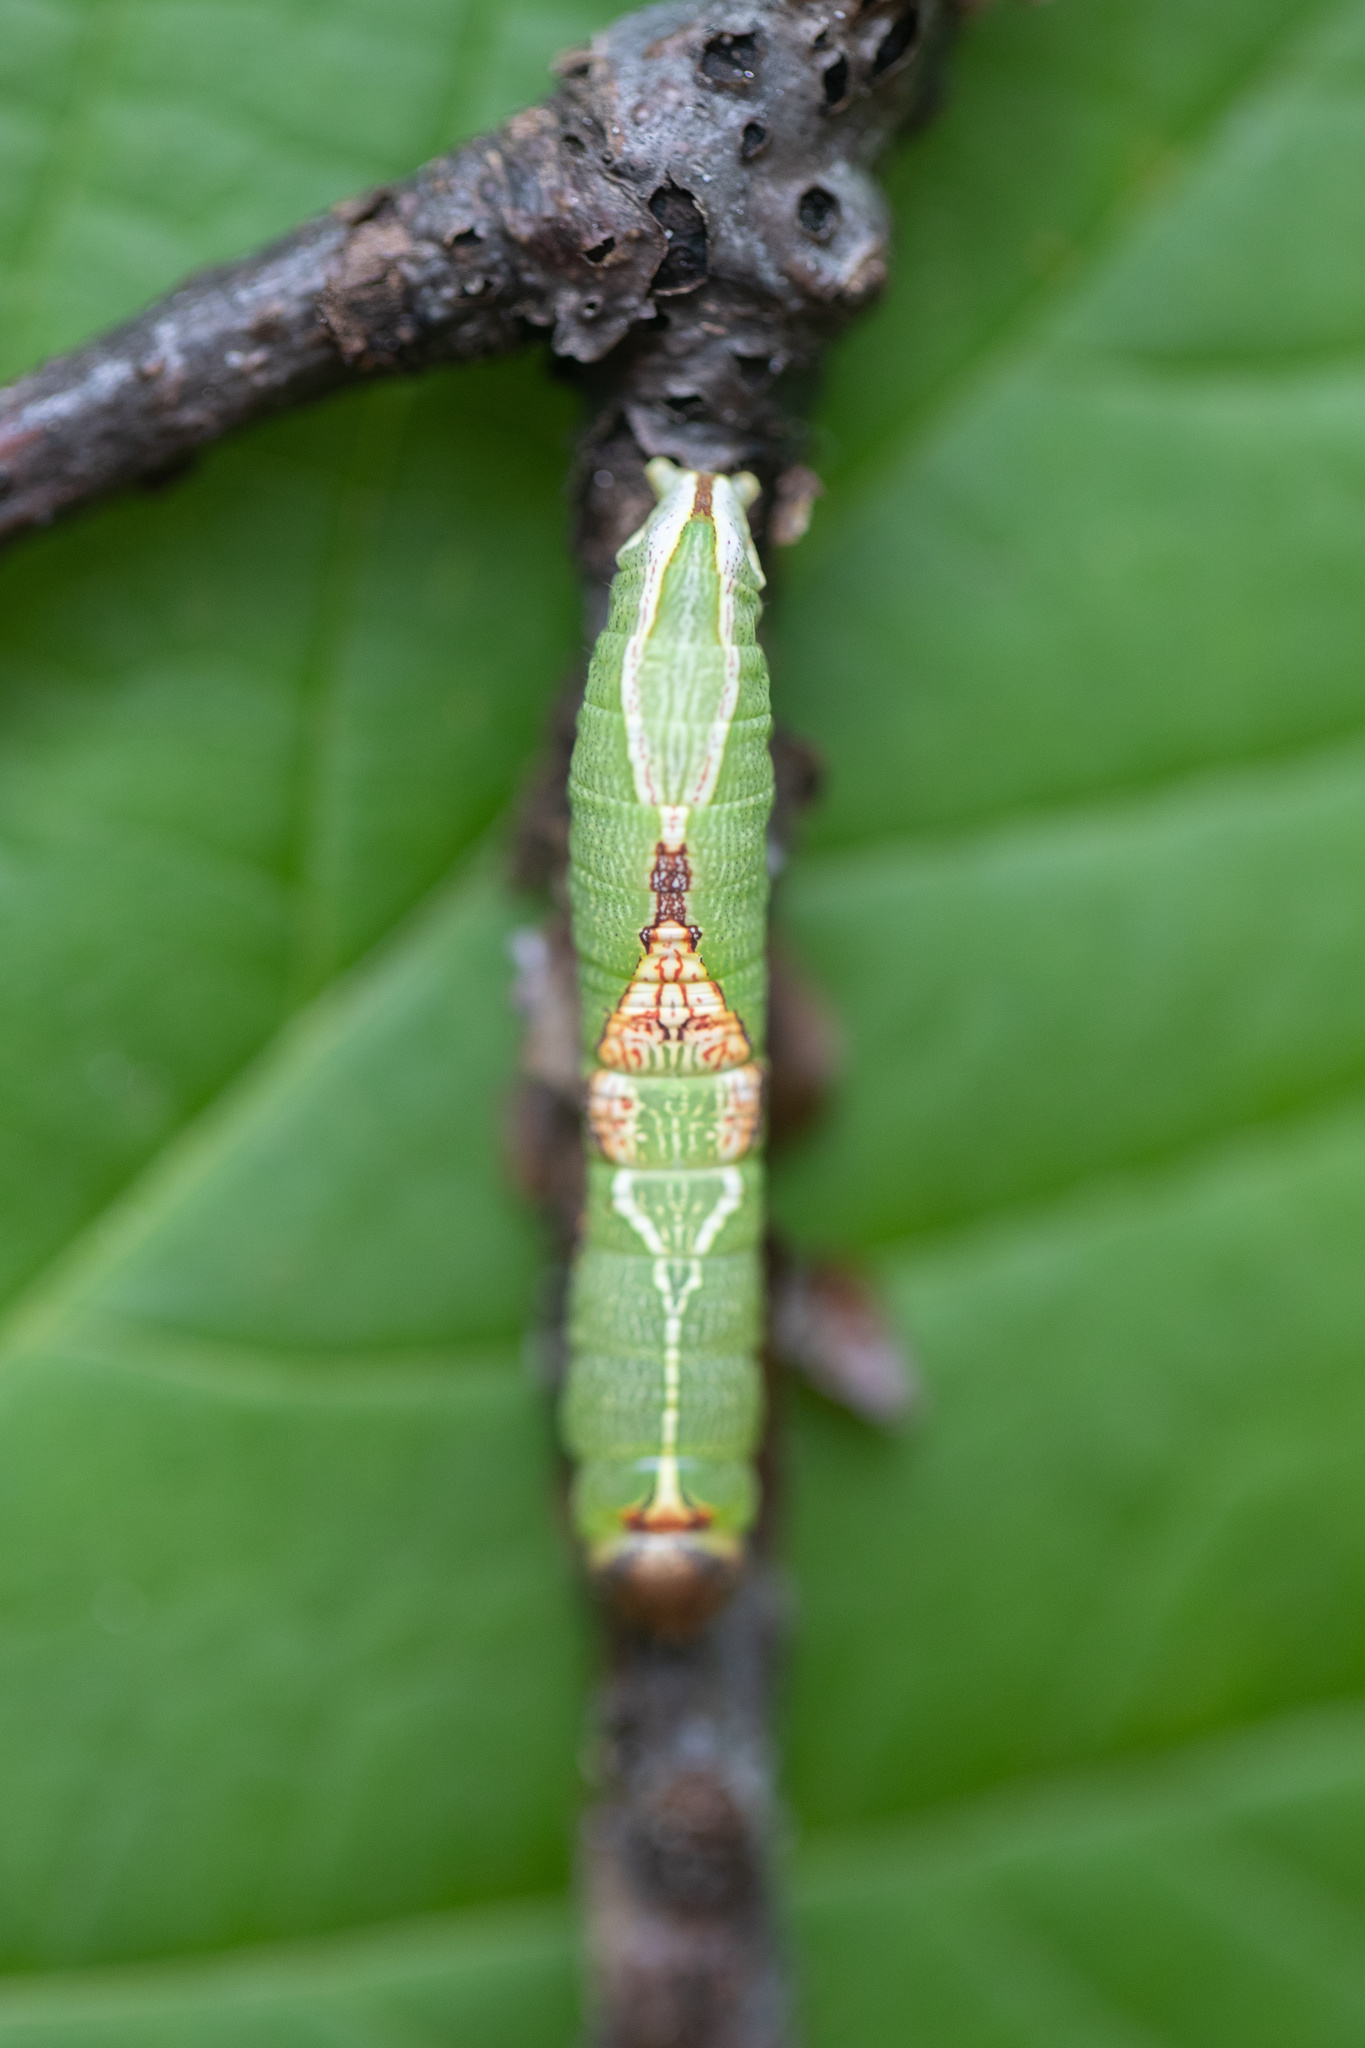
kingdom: Animalia
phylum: Arthropoda
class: Insecta
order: Lepidoptera
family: Notodontidae
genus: Heterocampa
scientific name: Heterocampa obliqua
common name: Oblique heterocampa
